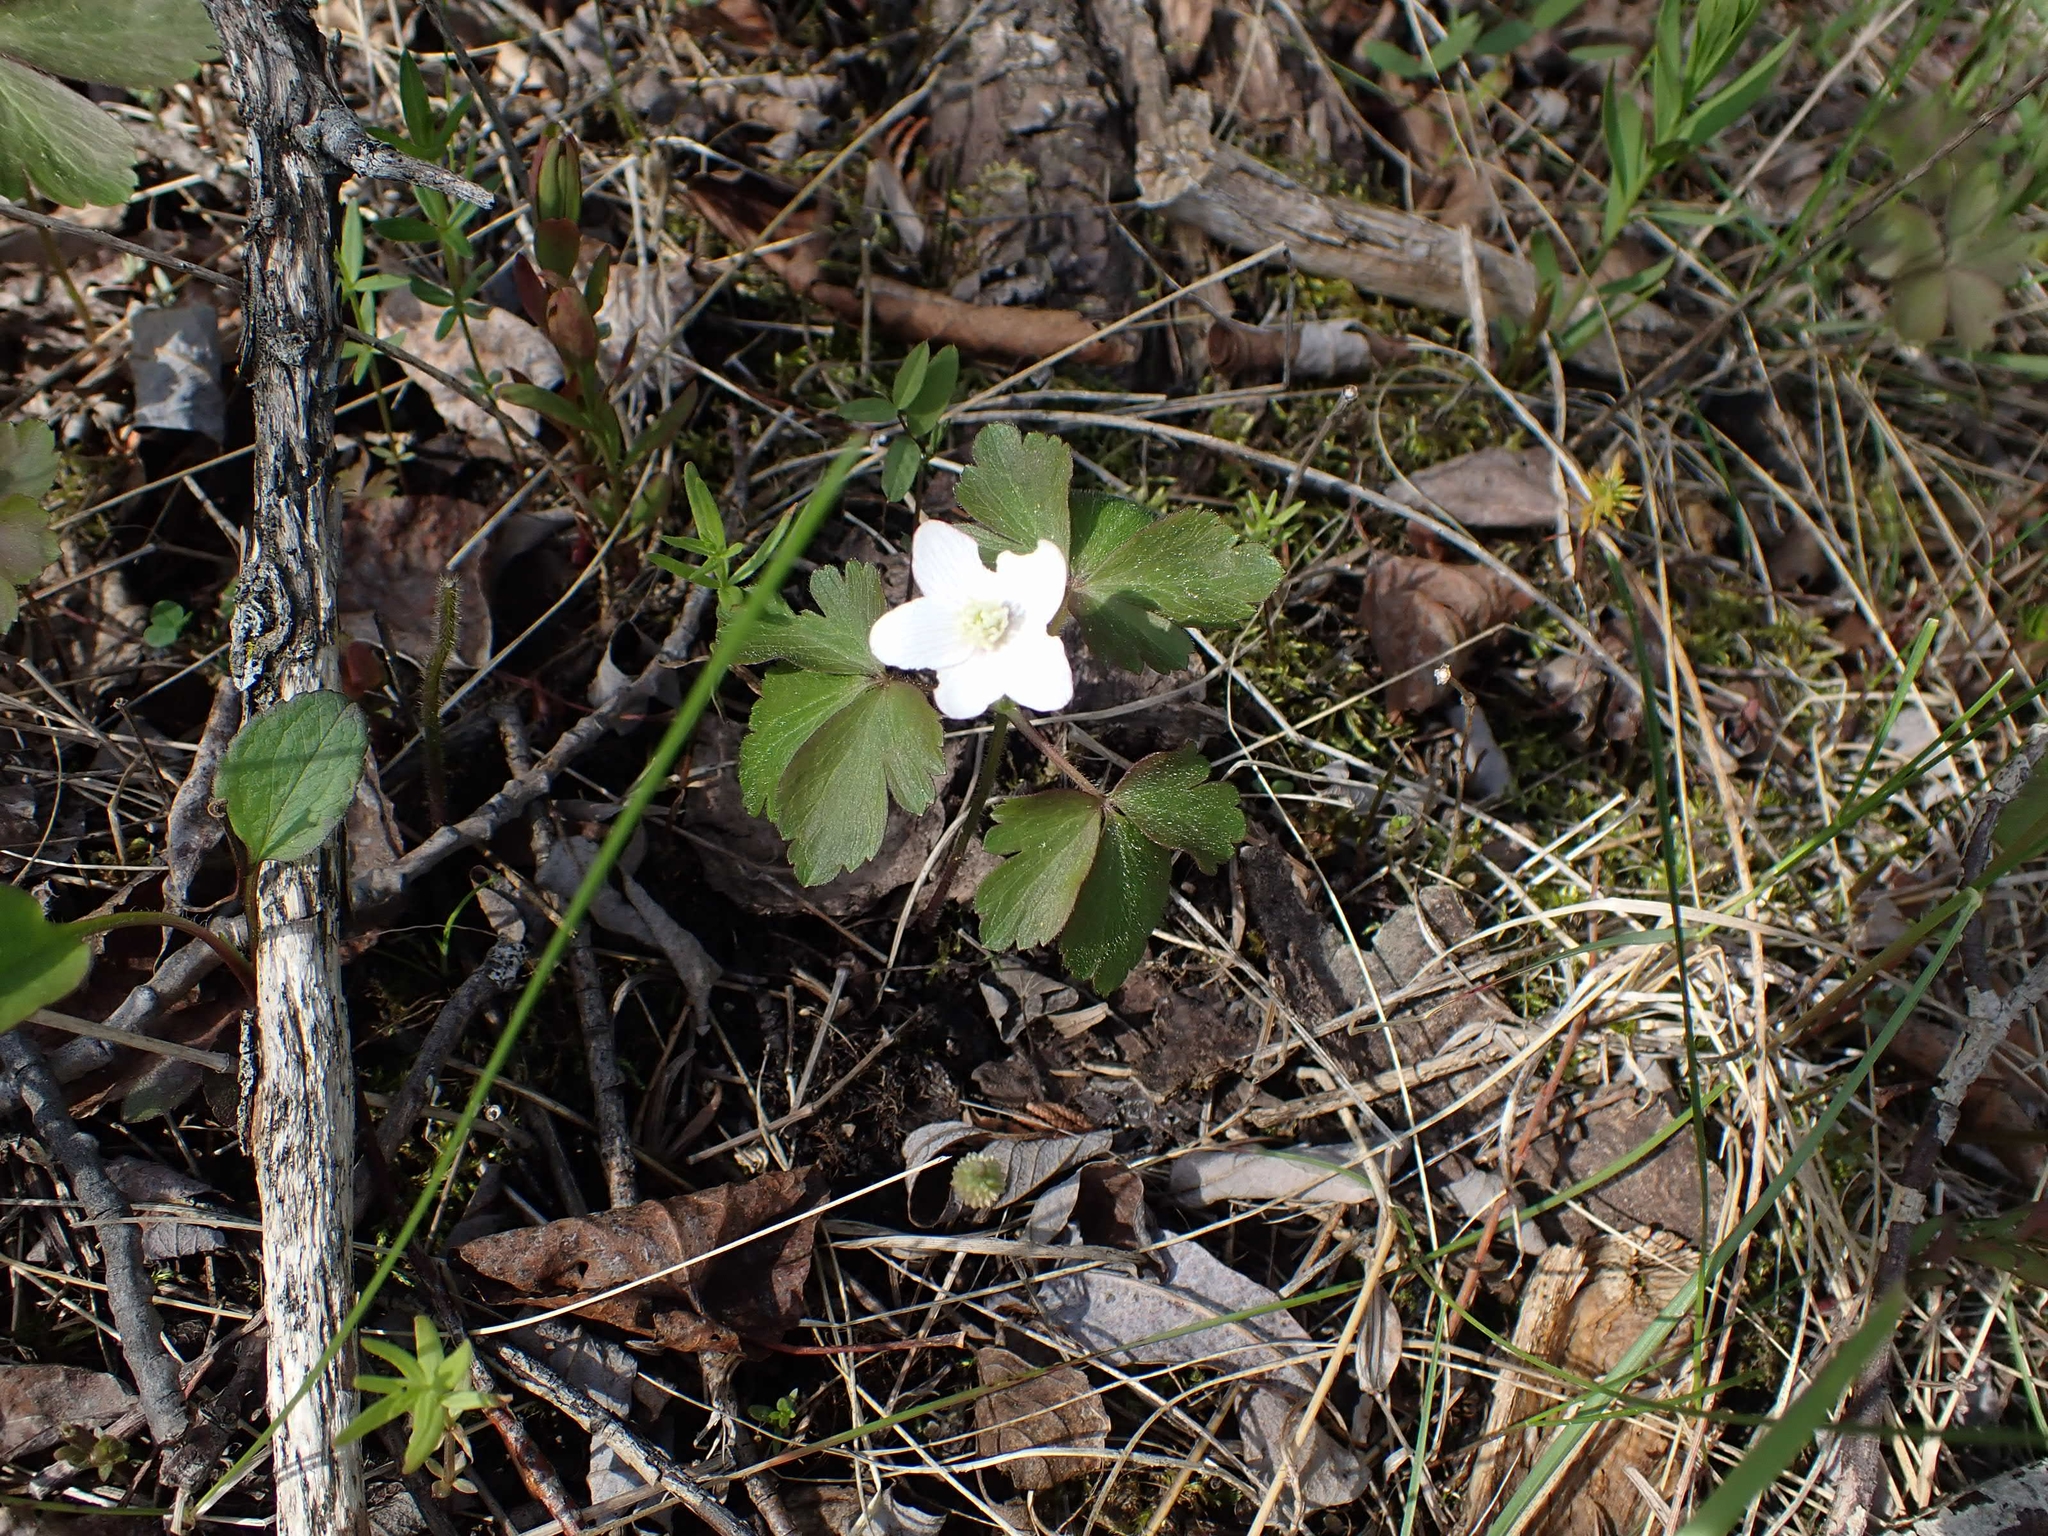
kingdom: Plantae
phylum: Tracheophyta
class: Magnoliopsida
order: Ranunculales
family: Ranunculaceae
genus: Anemone
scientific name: Anemone quinquefolia
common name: Wood anemone
